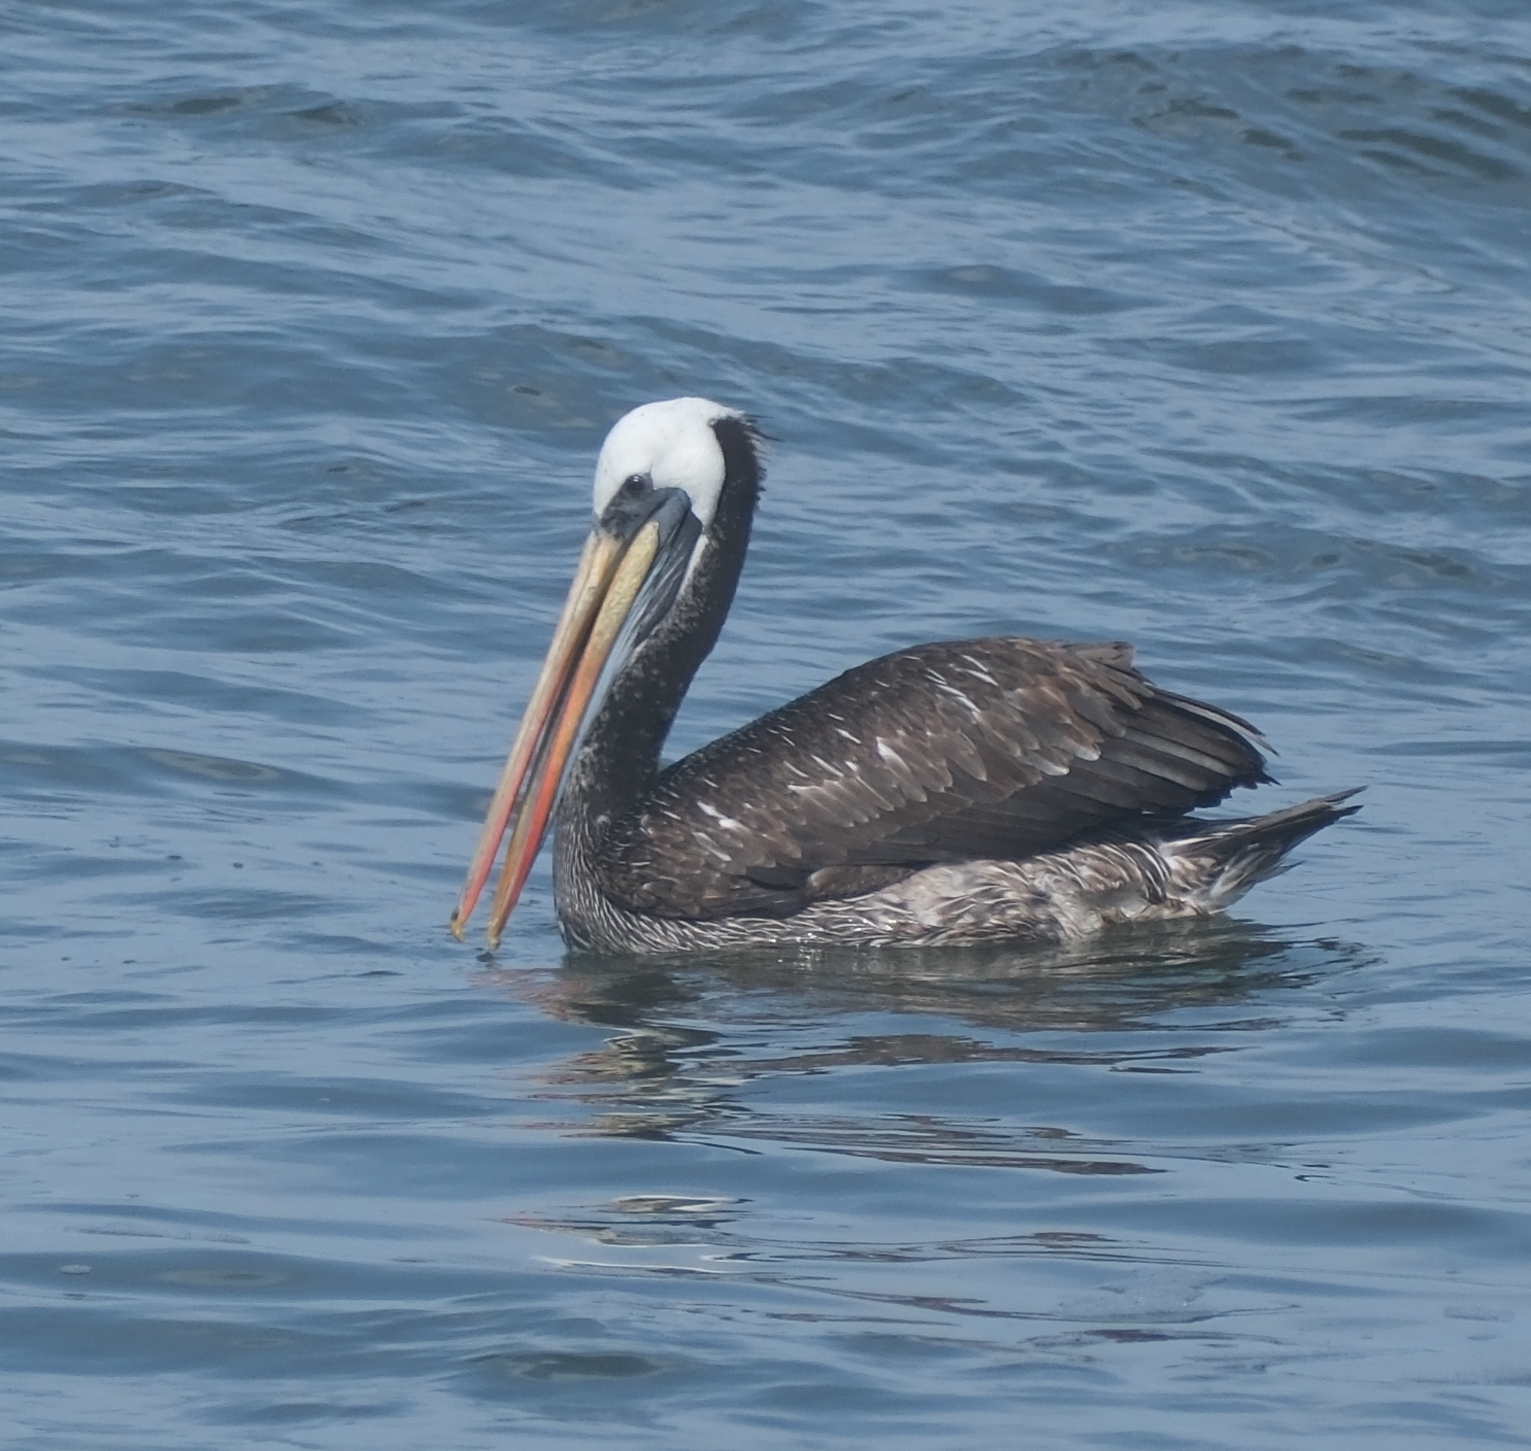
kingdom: Animalia
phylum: Chordata
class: Aves
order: Pelecaniformes
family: Pelecanidae
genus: Pelecanus
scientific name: Pelecanus thagus
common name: Peruvian pelican
